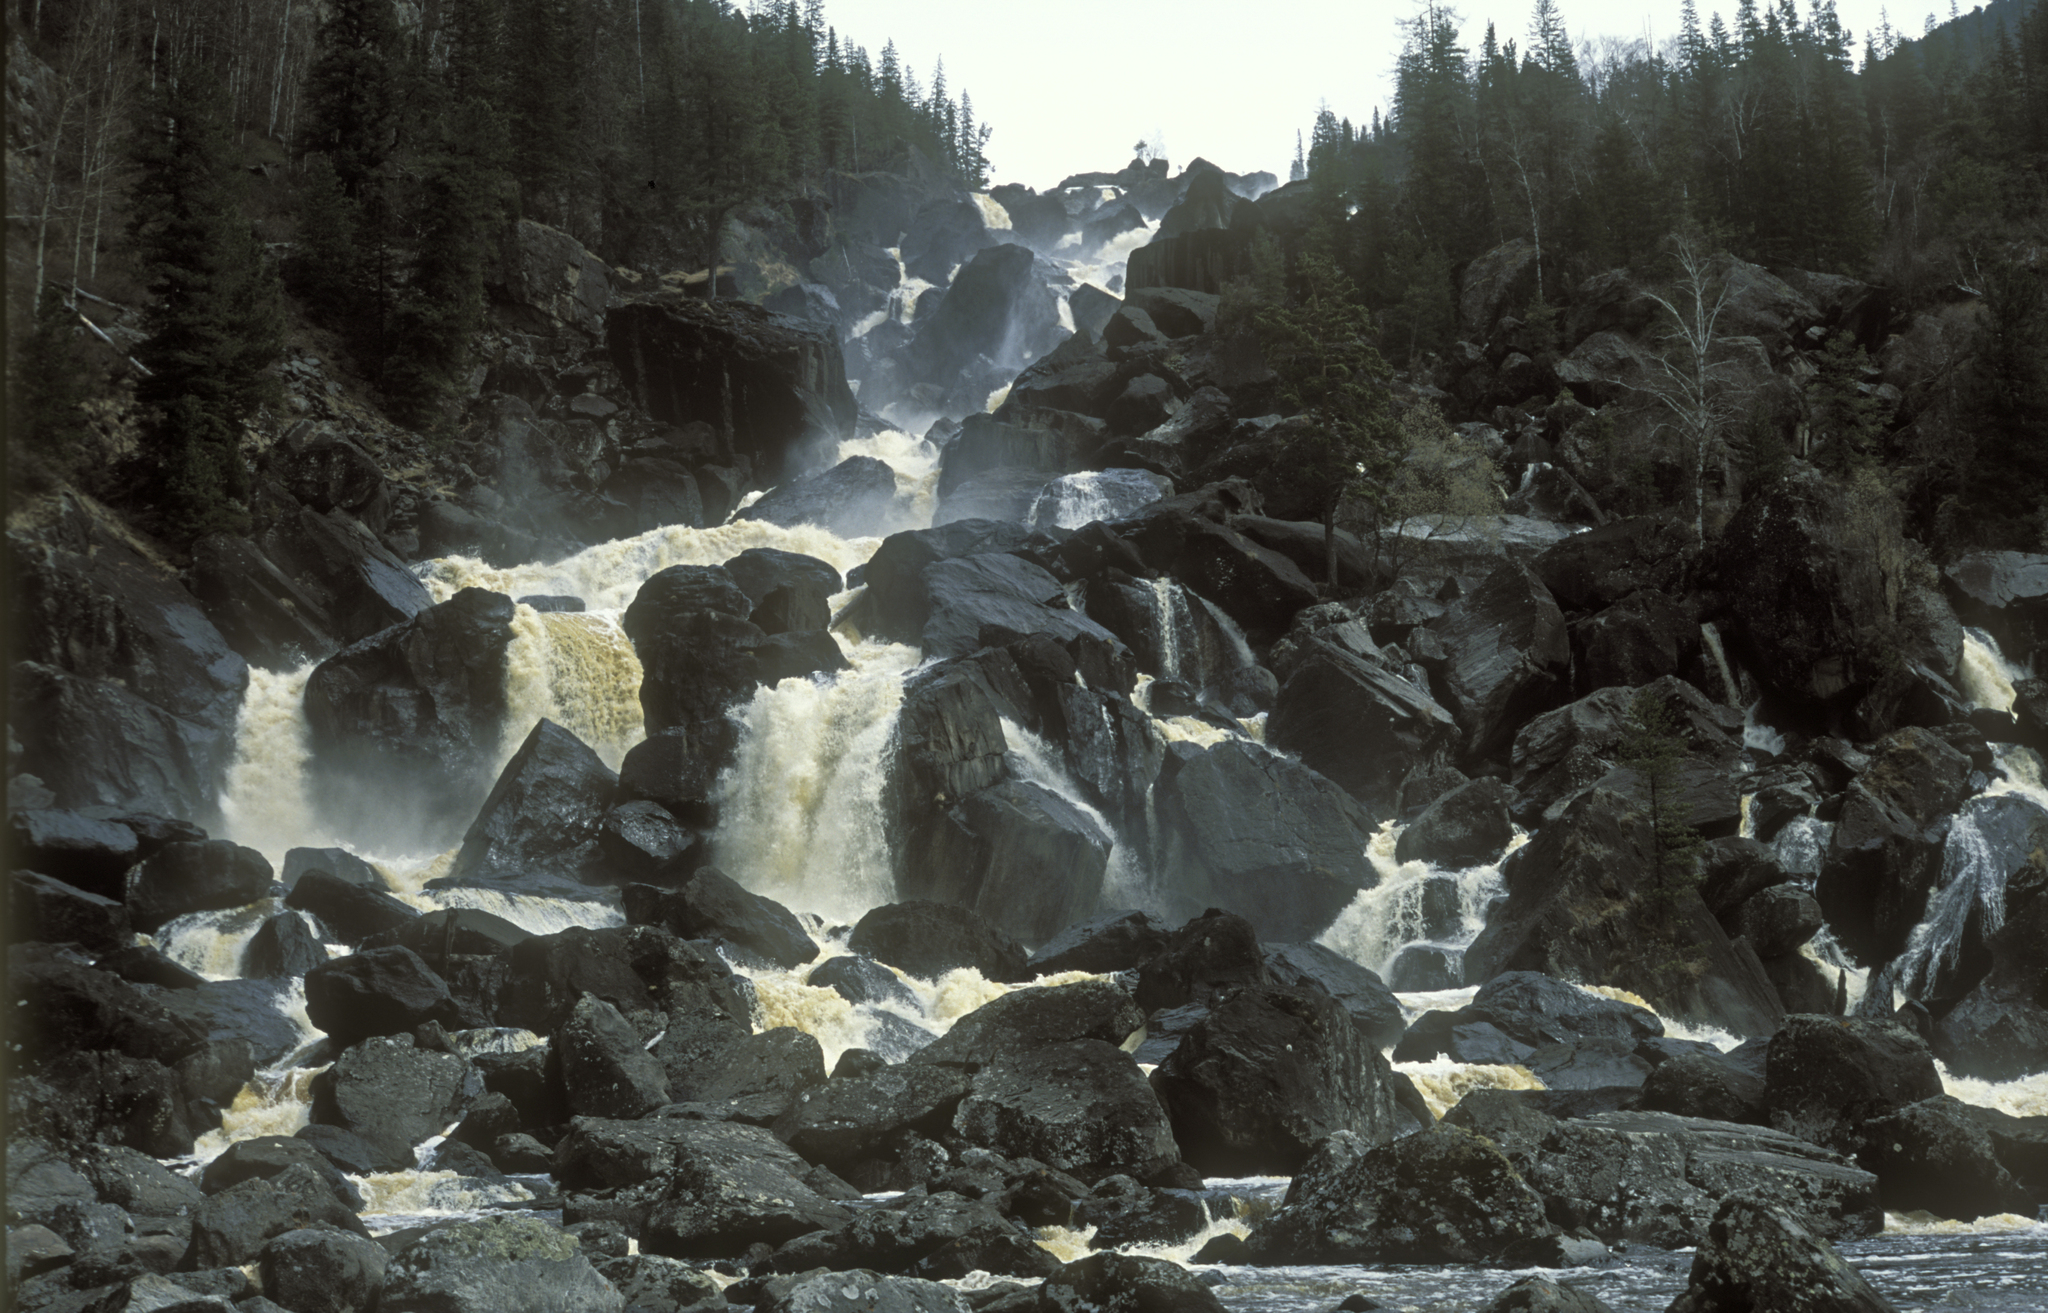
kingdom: Plantae
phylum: Tracheophyta
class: Pinopsida
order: Pinales
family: Pinaceae
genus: Picea
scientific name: Picea obovata
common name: Siberian spruce
